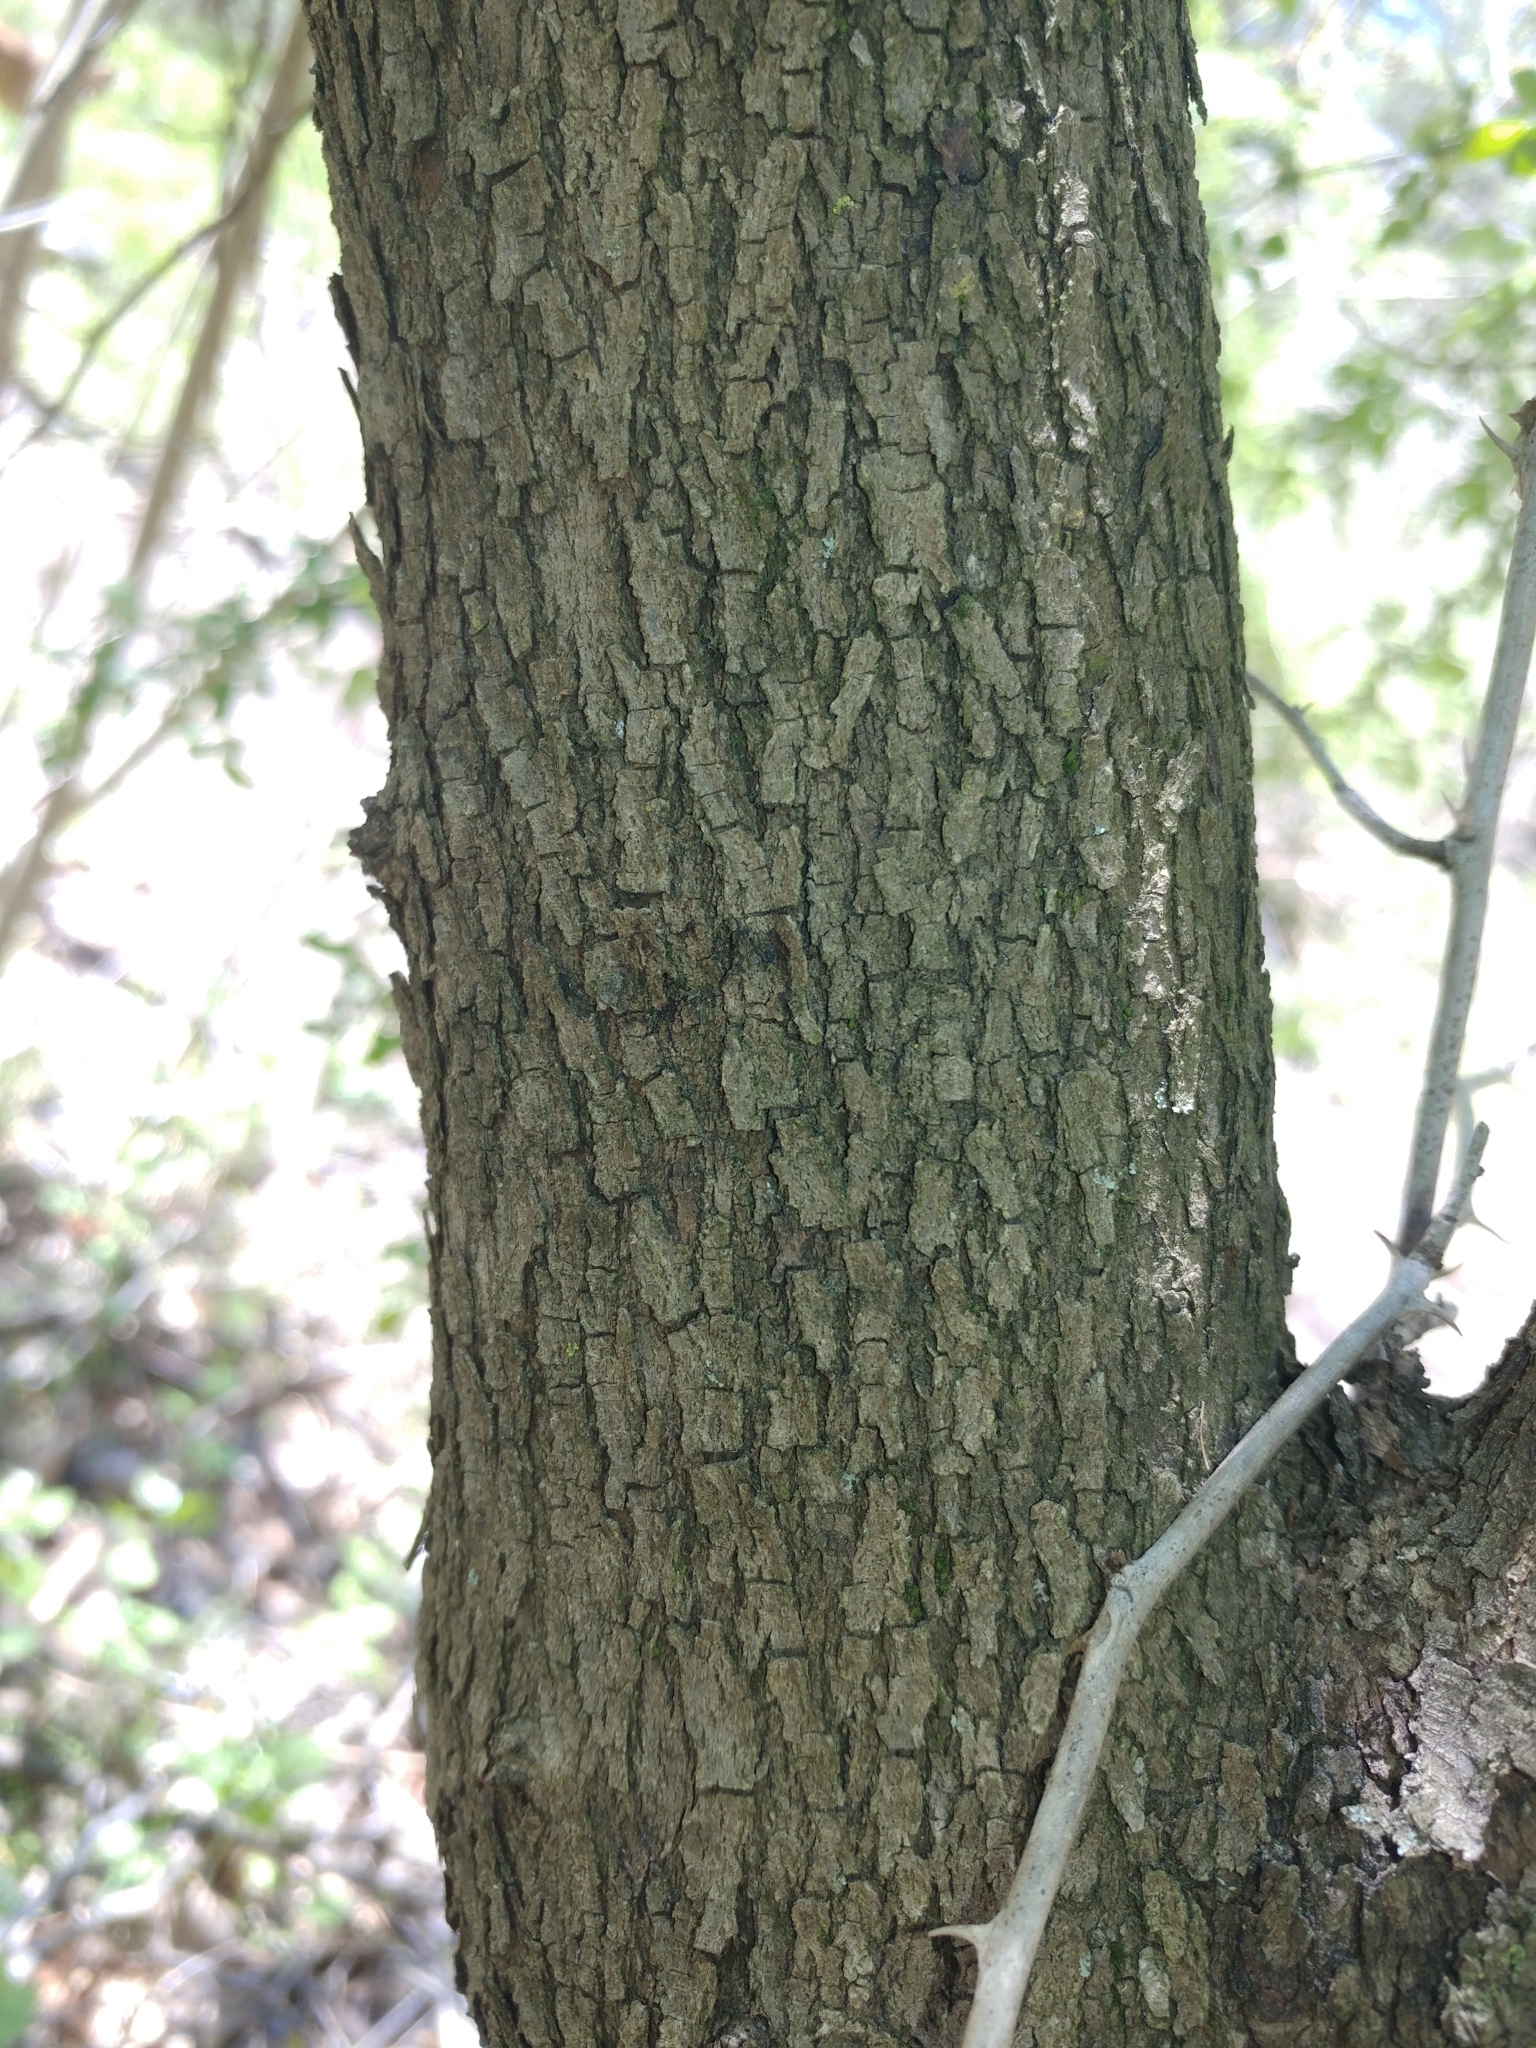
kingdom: Plantae
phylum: Tracheophyta
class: Magnoliopsida
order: Fabales
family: Fabaceae
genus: Cercis
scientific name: Cercis canadensis
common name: Eastern redbud
